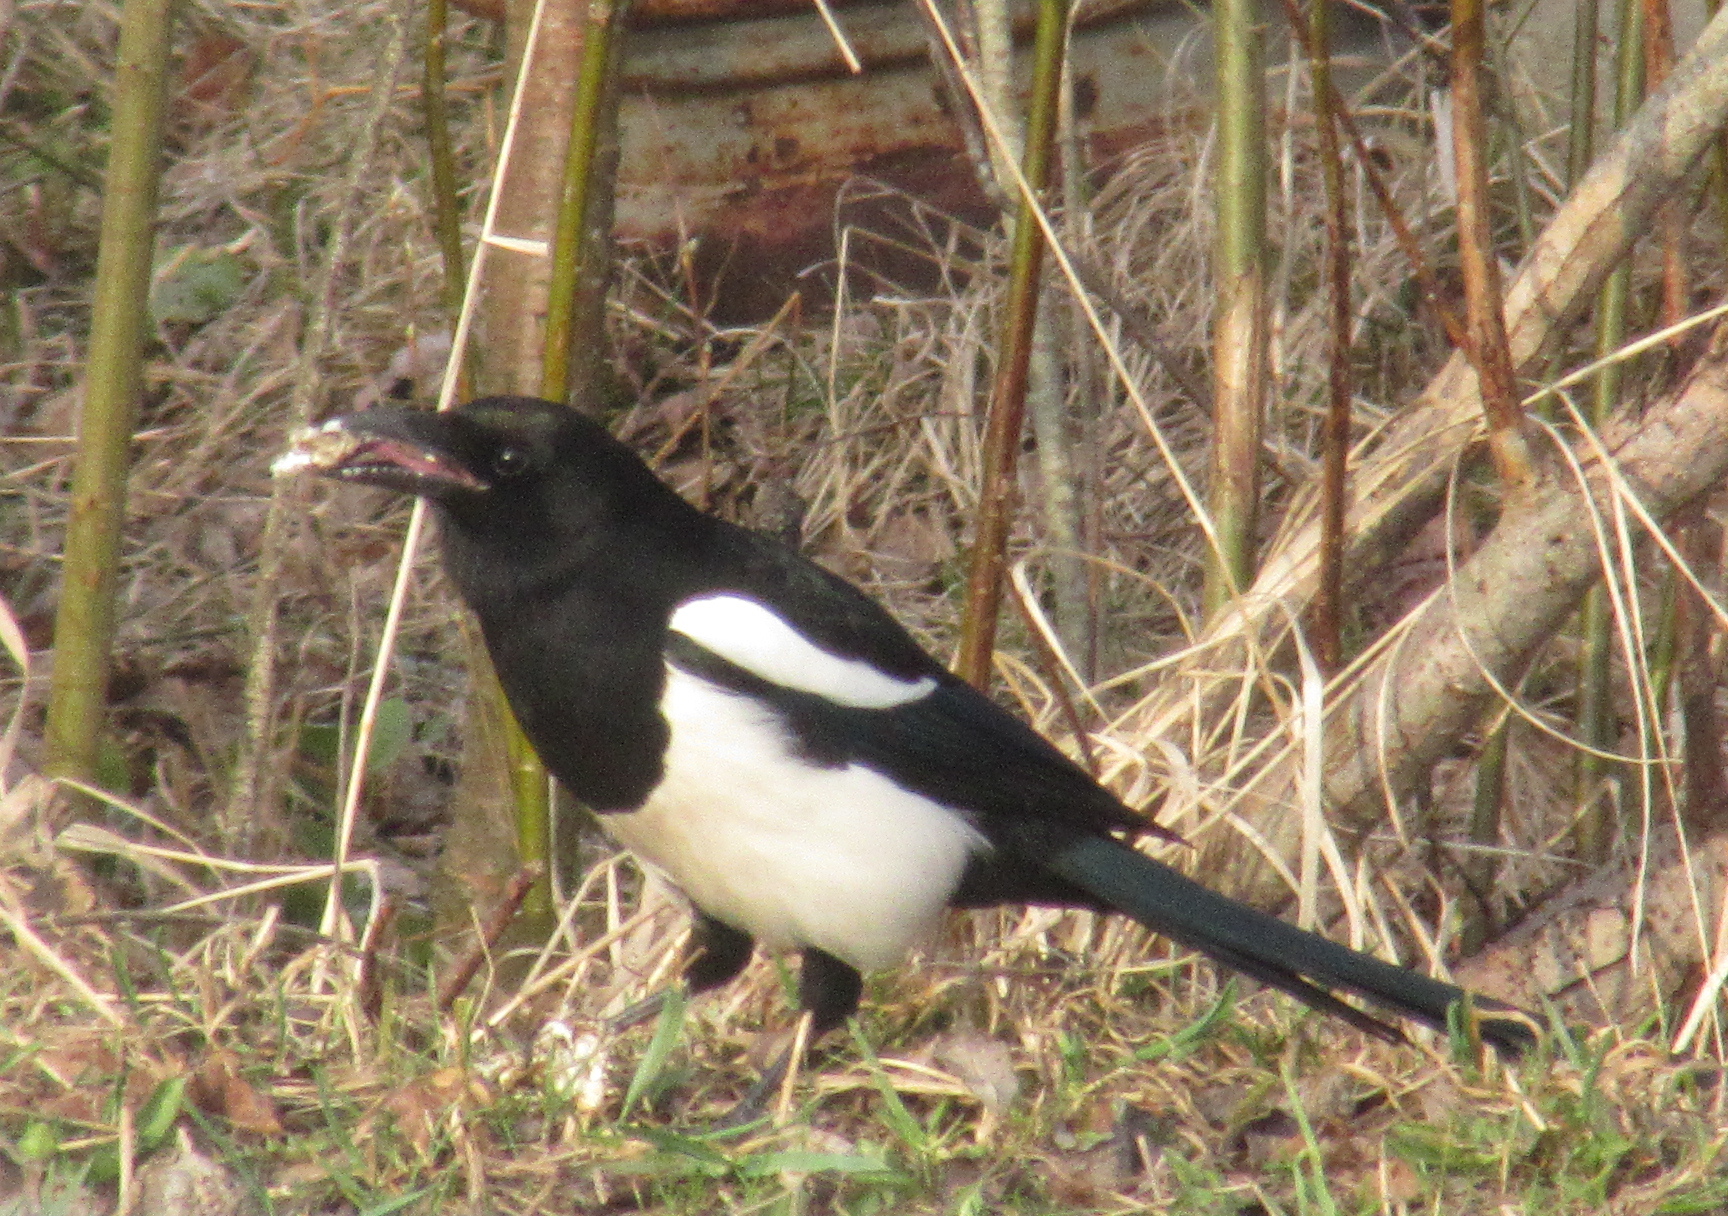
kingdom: Animalia
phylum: Chordata
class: Aves
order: Passeriformes
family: Corvidae
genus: Pica
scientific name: Pica pica
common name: Eurasian magpie
